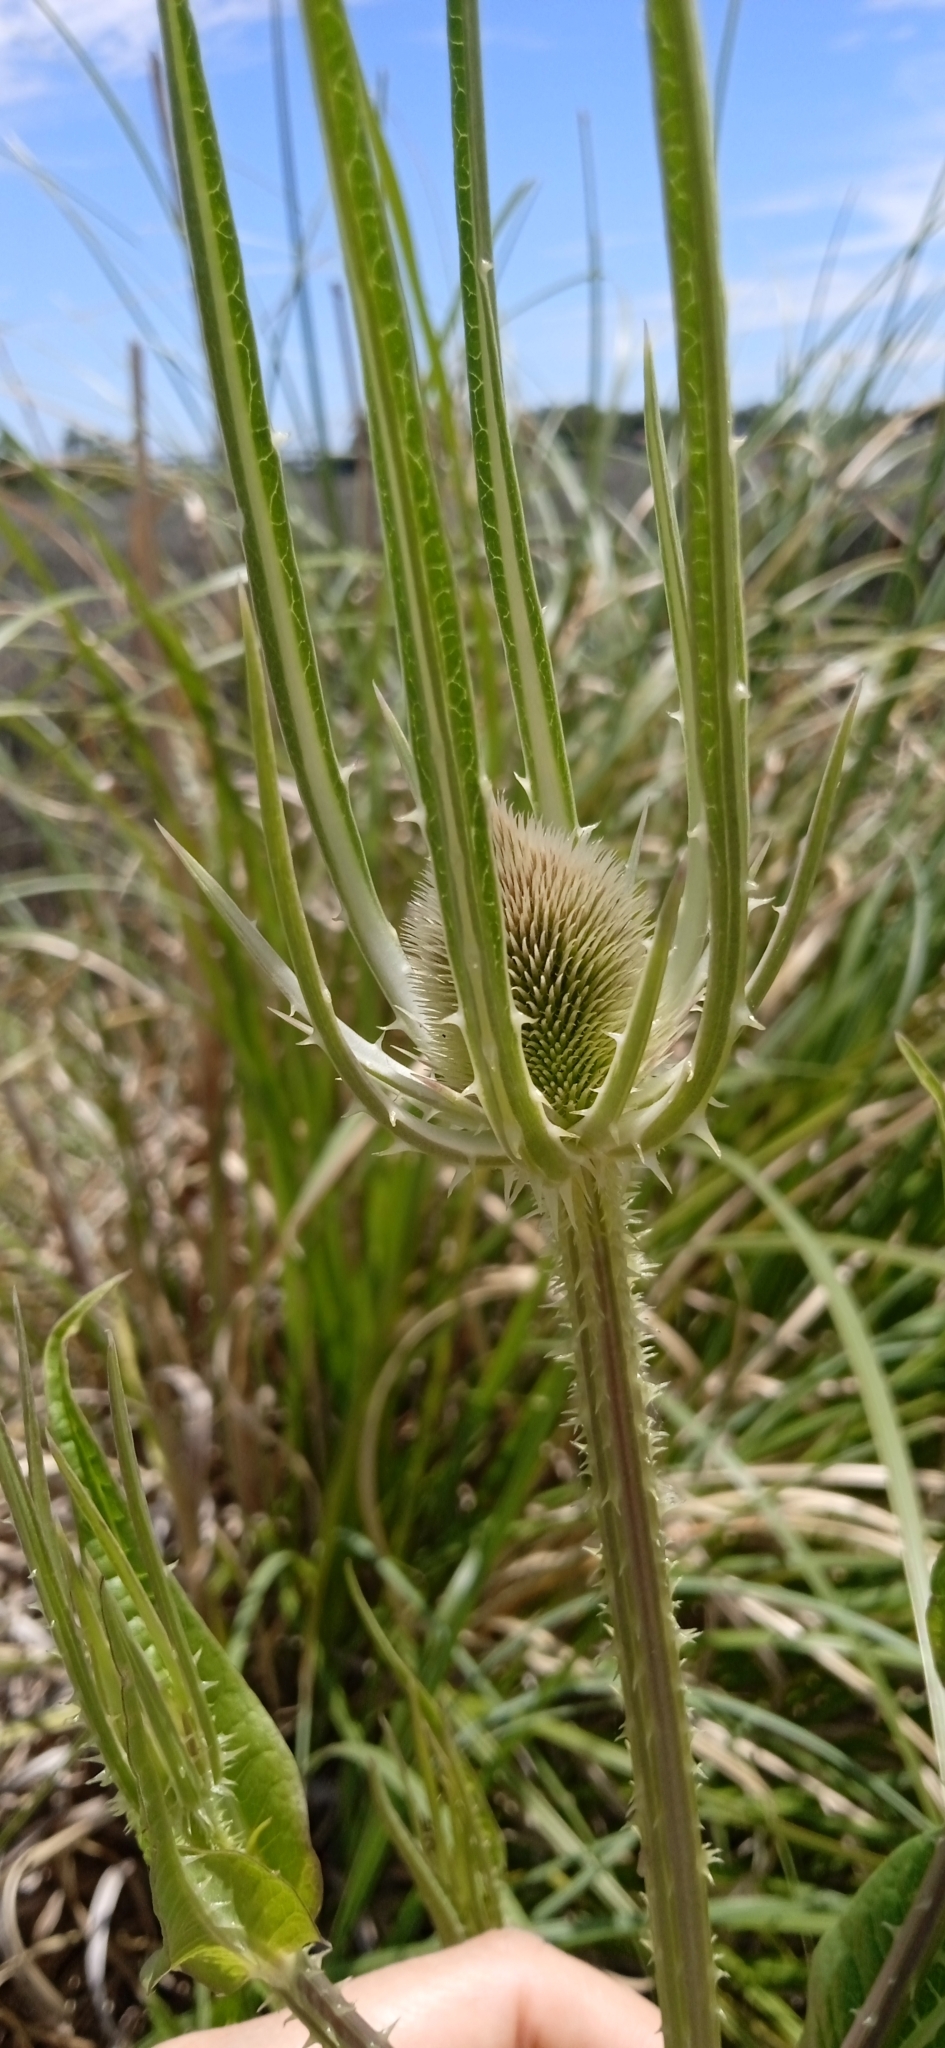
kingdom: Plantae
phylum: Tracheophyta
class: Magnoliopsida
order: Dipsacales
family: Caprifoliaceae
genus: Dipsacus
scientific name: Dipsacus fullonum
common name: Teasel
